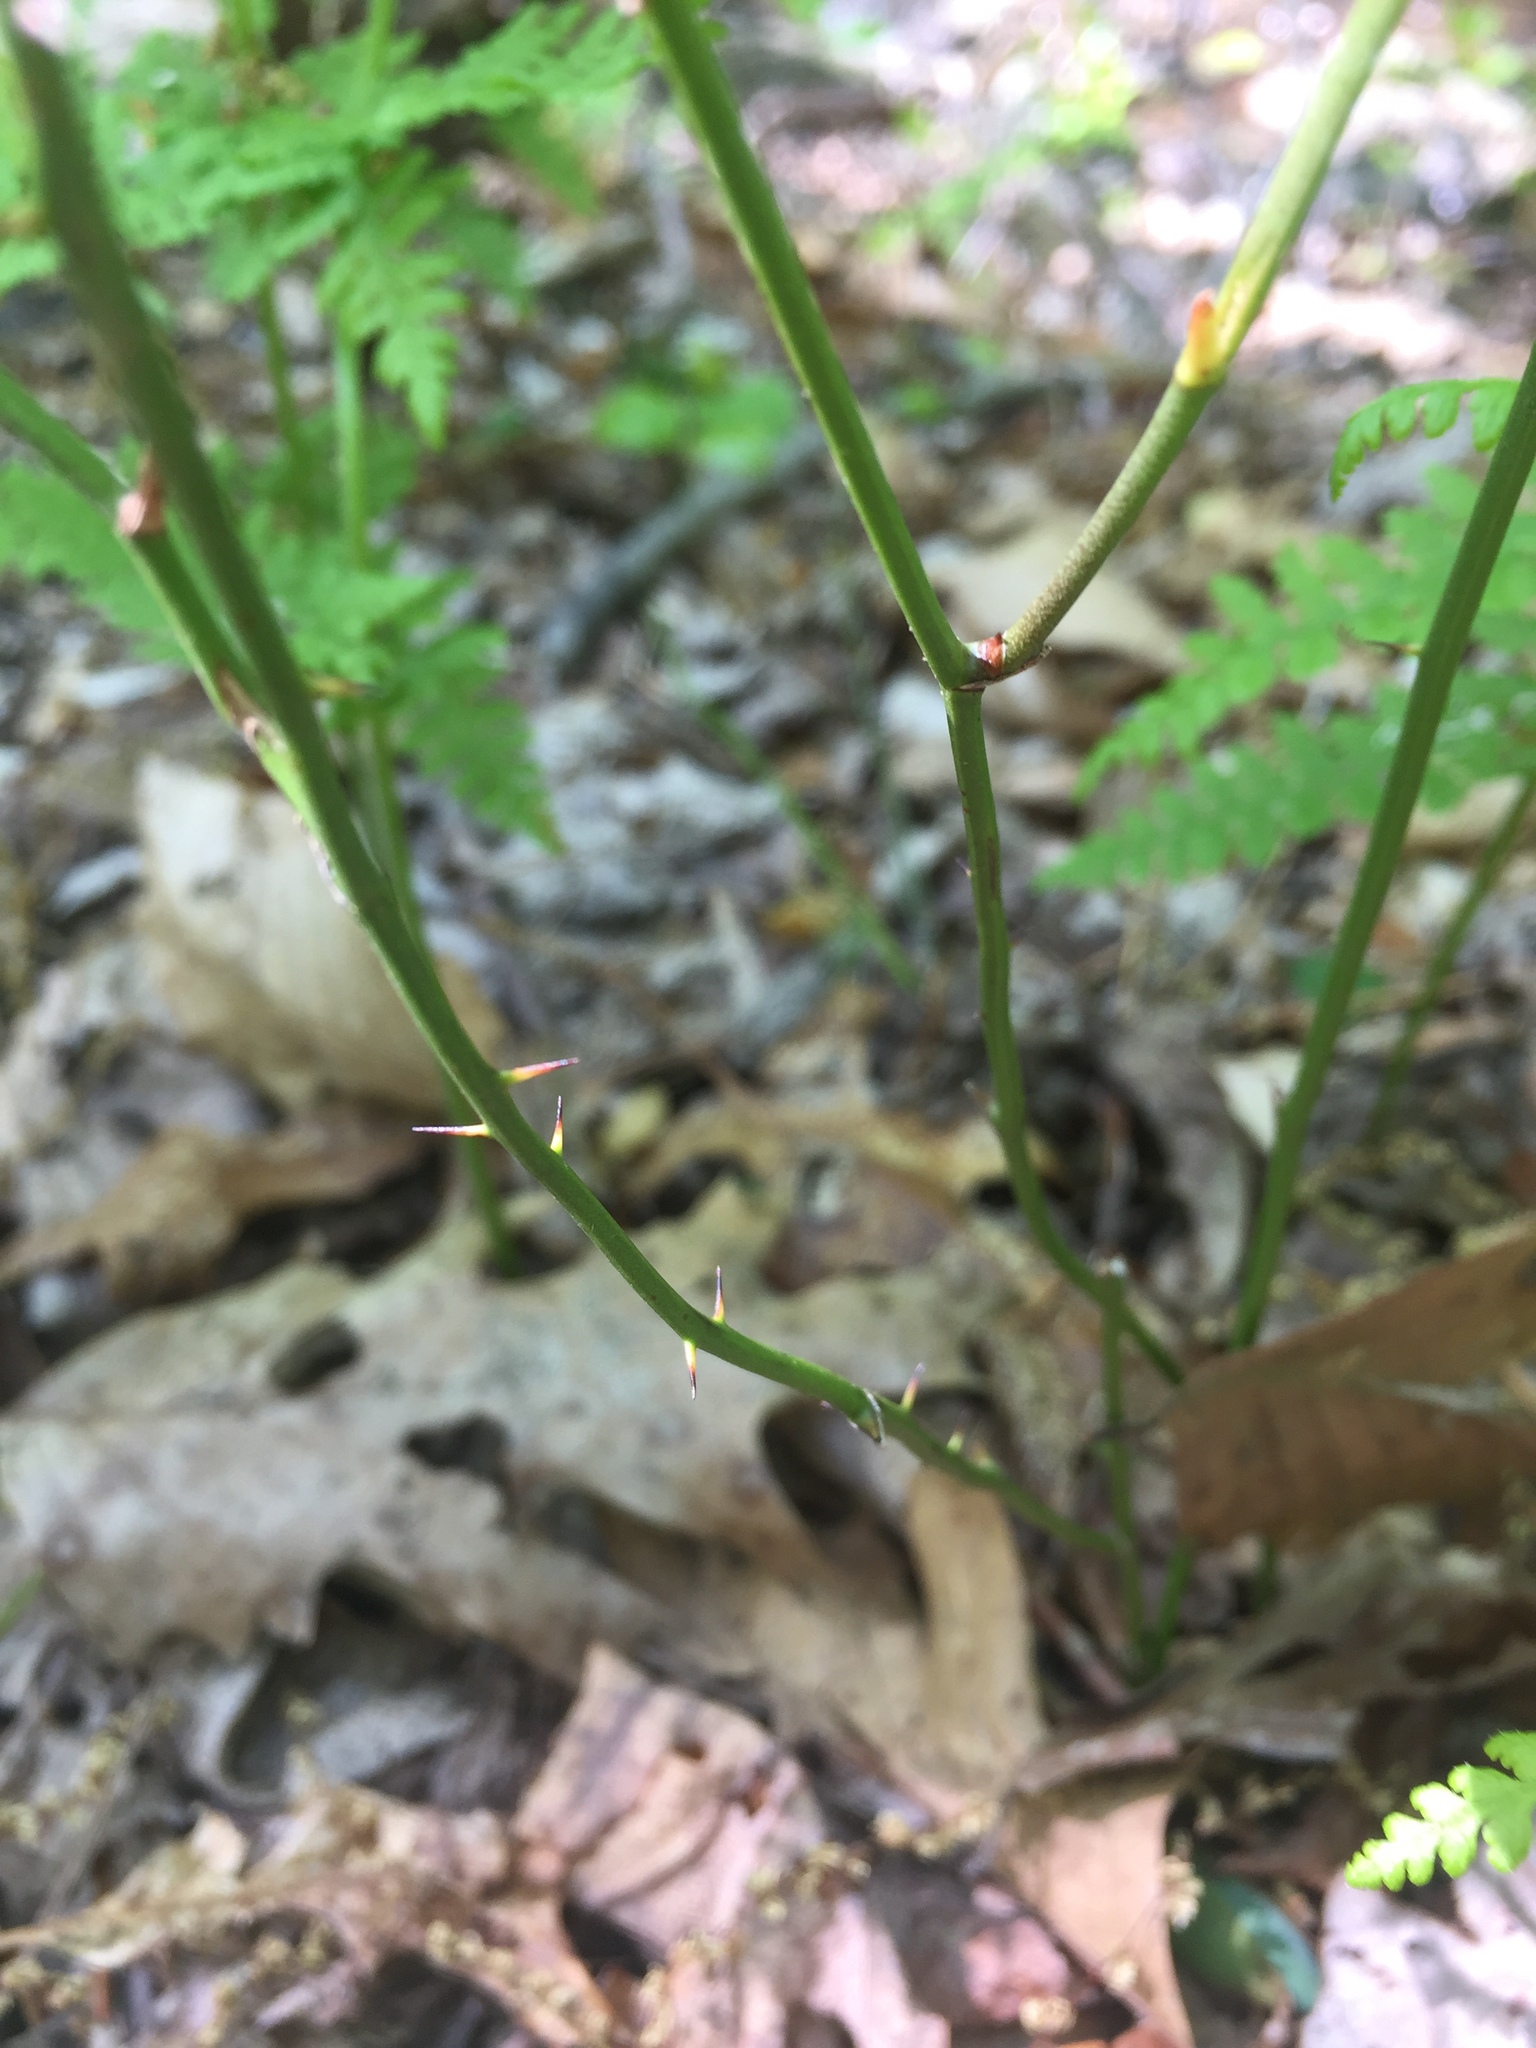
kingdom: Plantae
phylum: Tracheophyta
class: Liliopsida
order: Liliales
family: Smilacaceae
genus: Smilax
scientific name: Smilax rotundifolia
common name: Bullbriar
